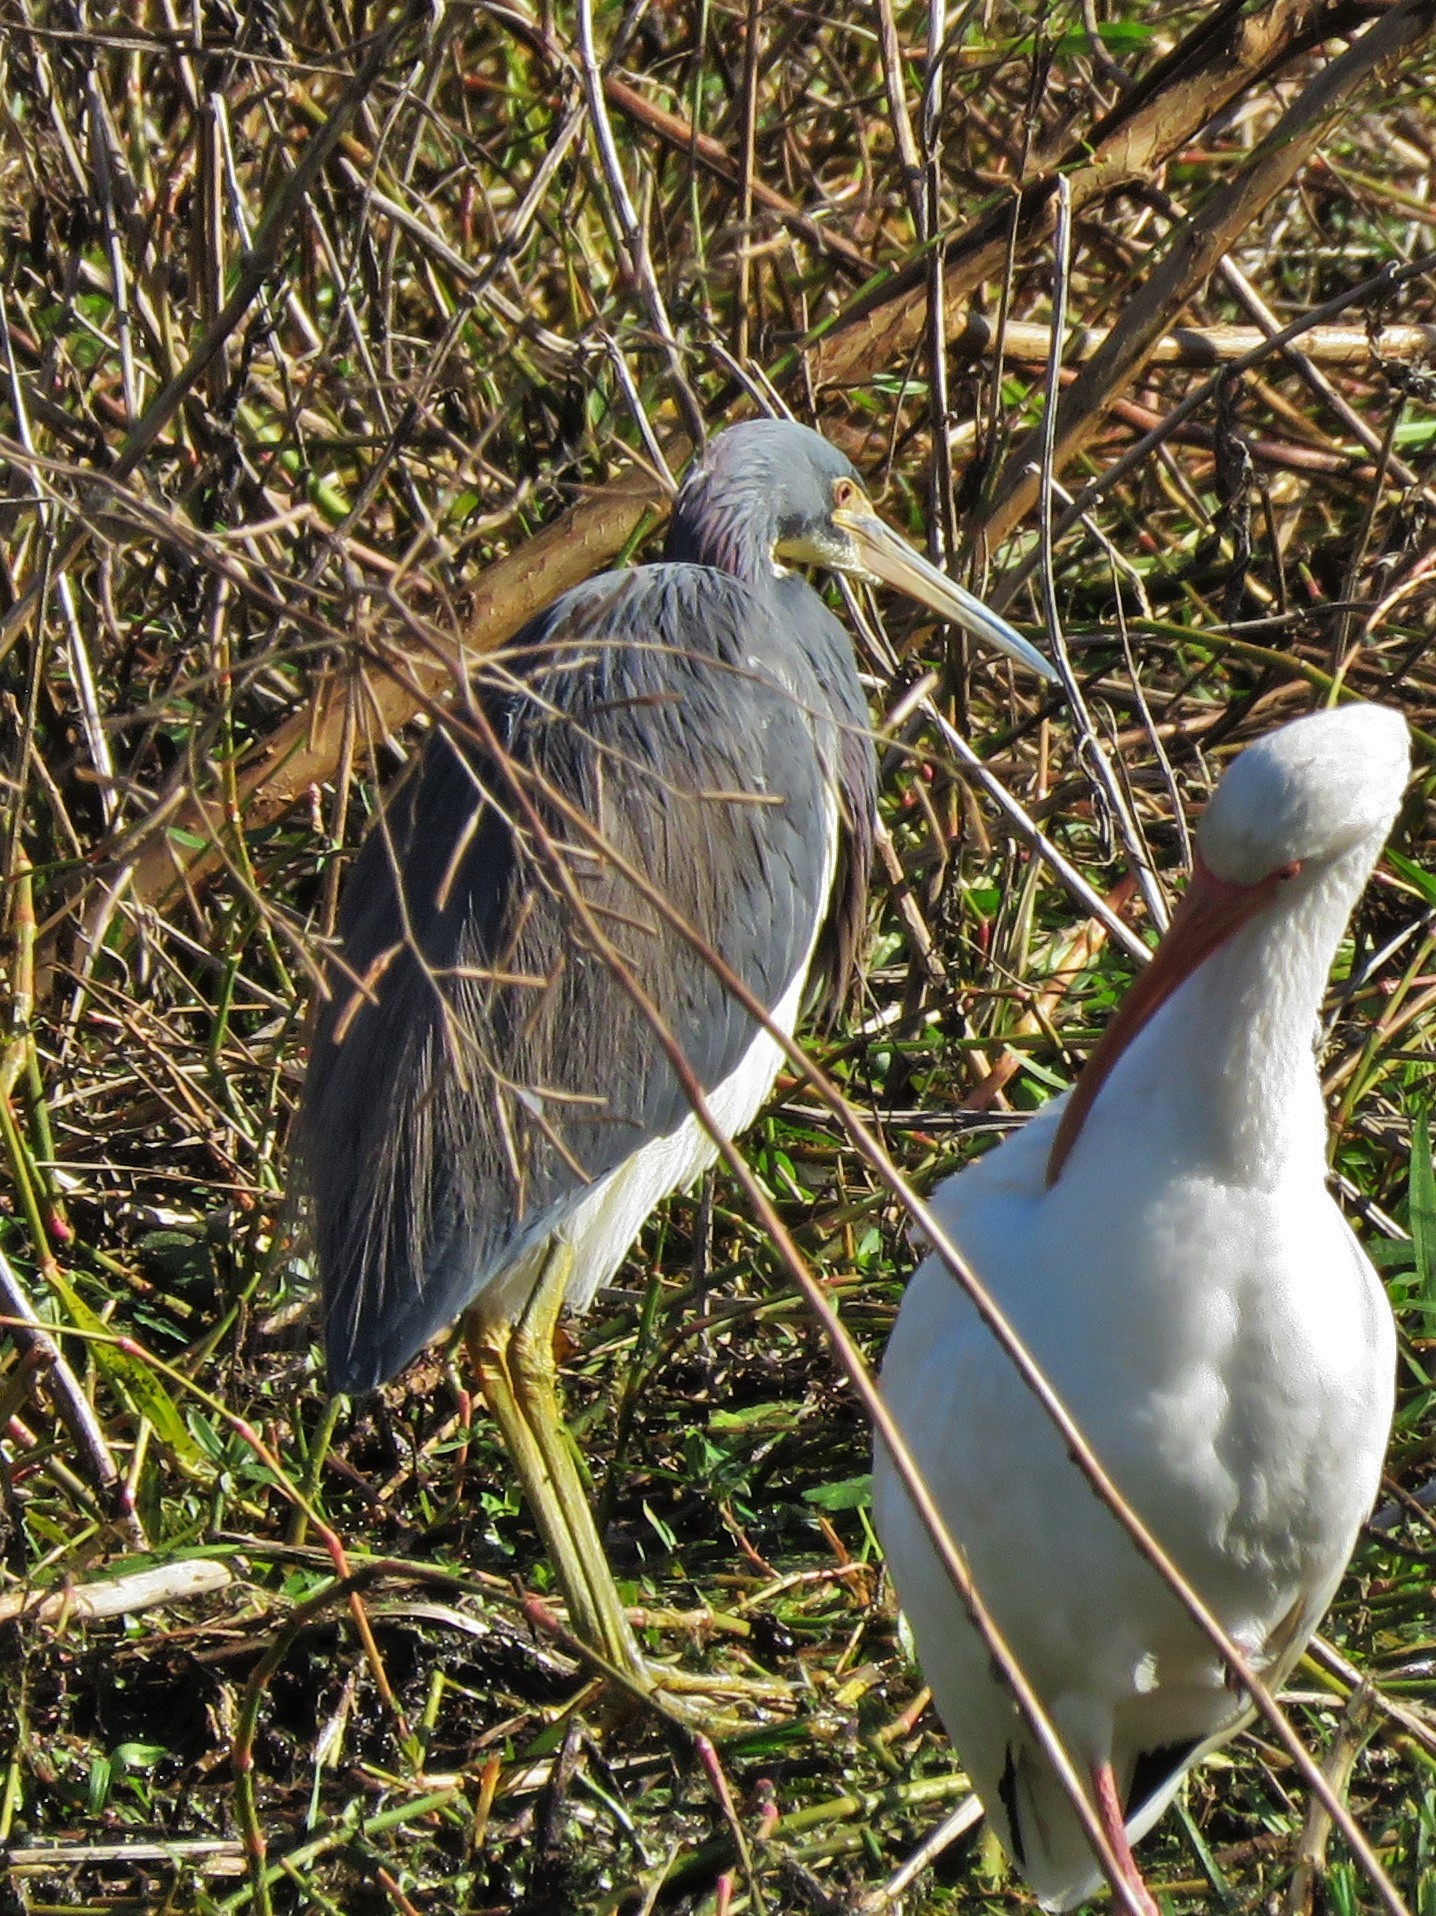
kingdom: Animalia
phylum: Chordata
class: Aves
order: Pelecaniformes
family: Ardeidae
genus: Egretta
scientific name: Egretta tricolor
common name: Tricolored heron
